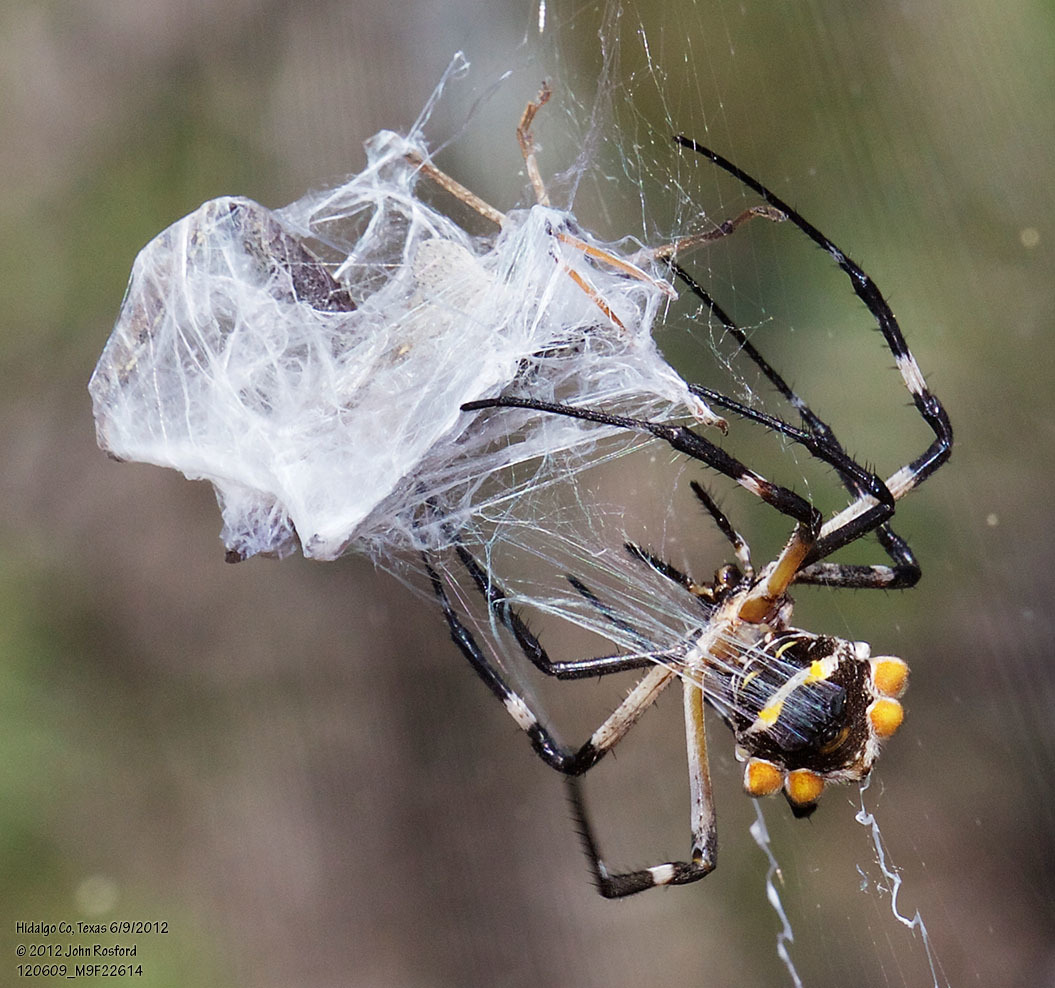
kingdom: Animalia
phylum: Arthropoda
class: Arachnida
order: Araneae
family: Araneidae
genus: Argiope
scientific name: Argiope argentata
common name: Orb weavers
